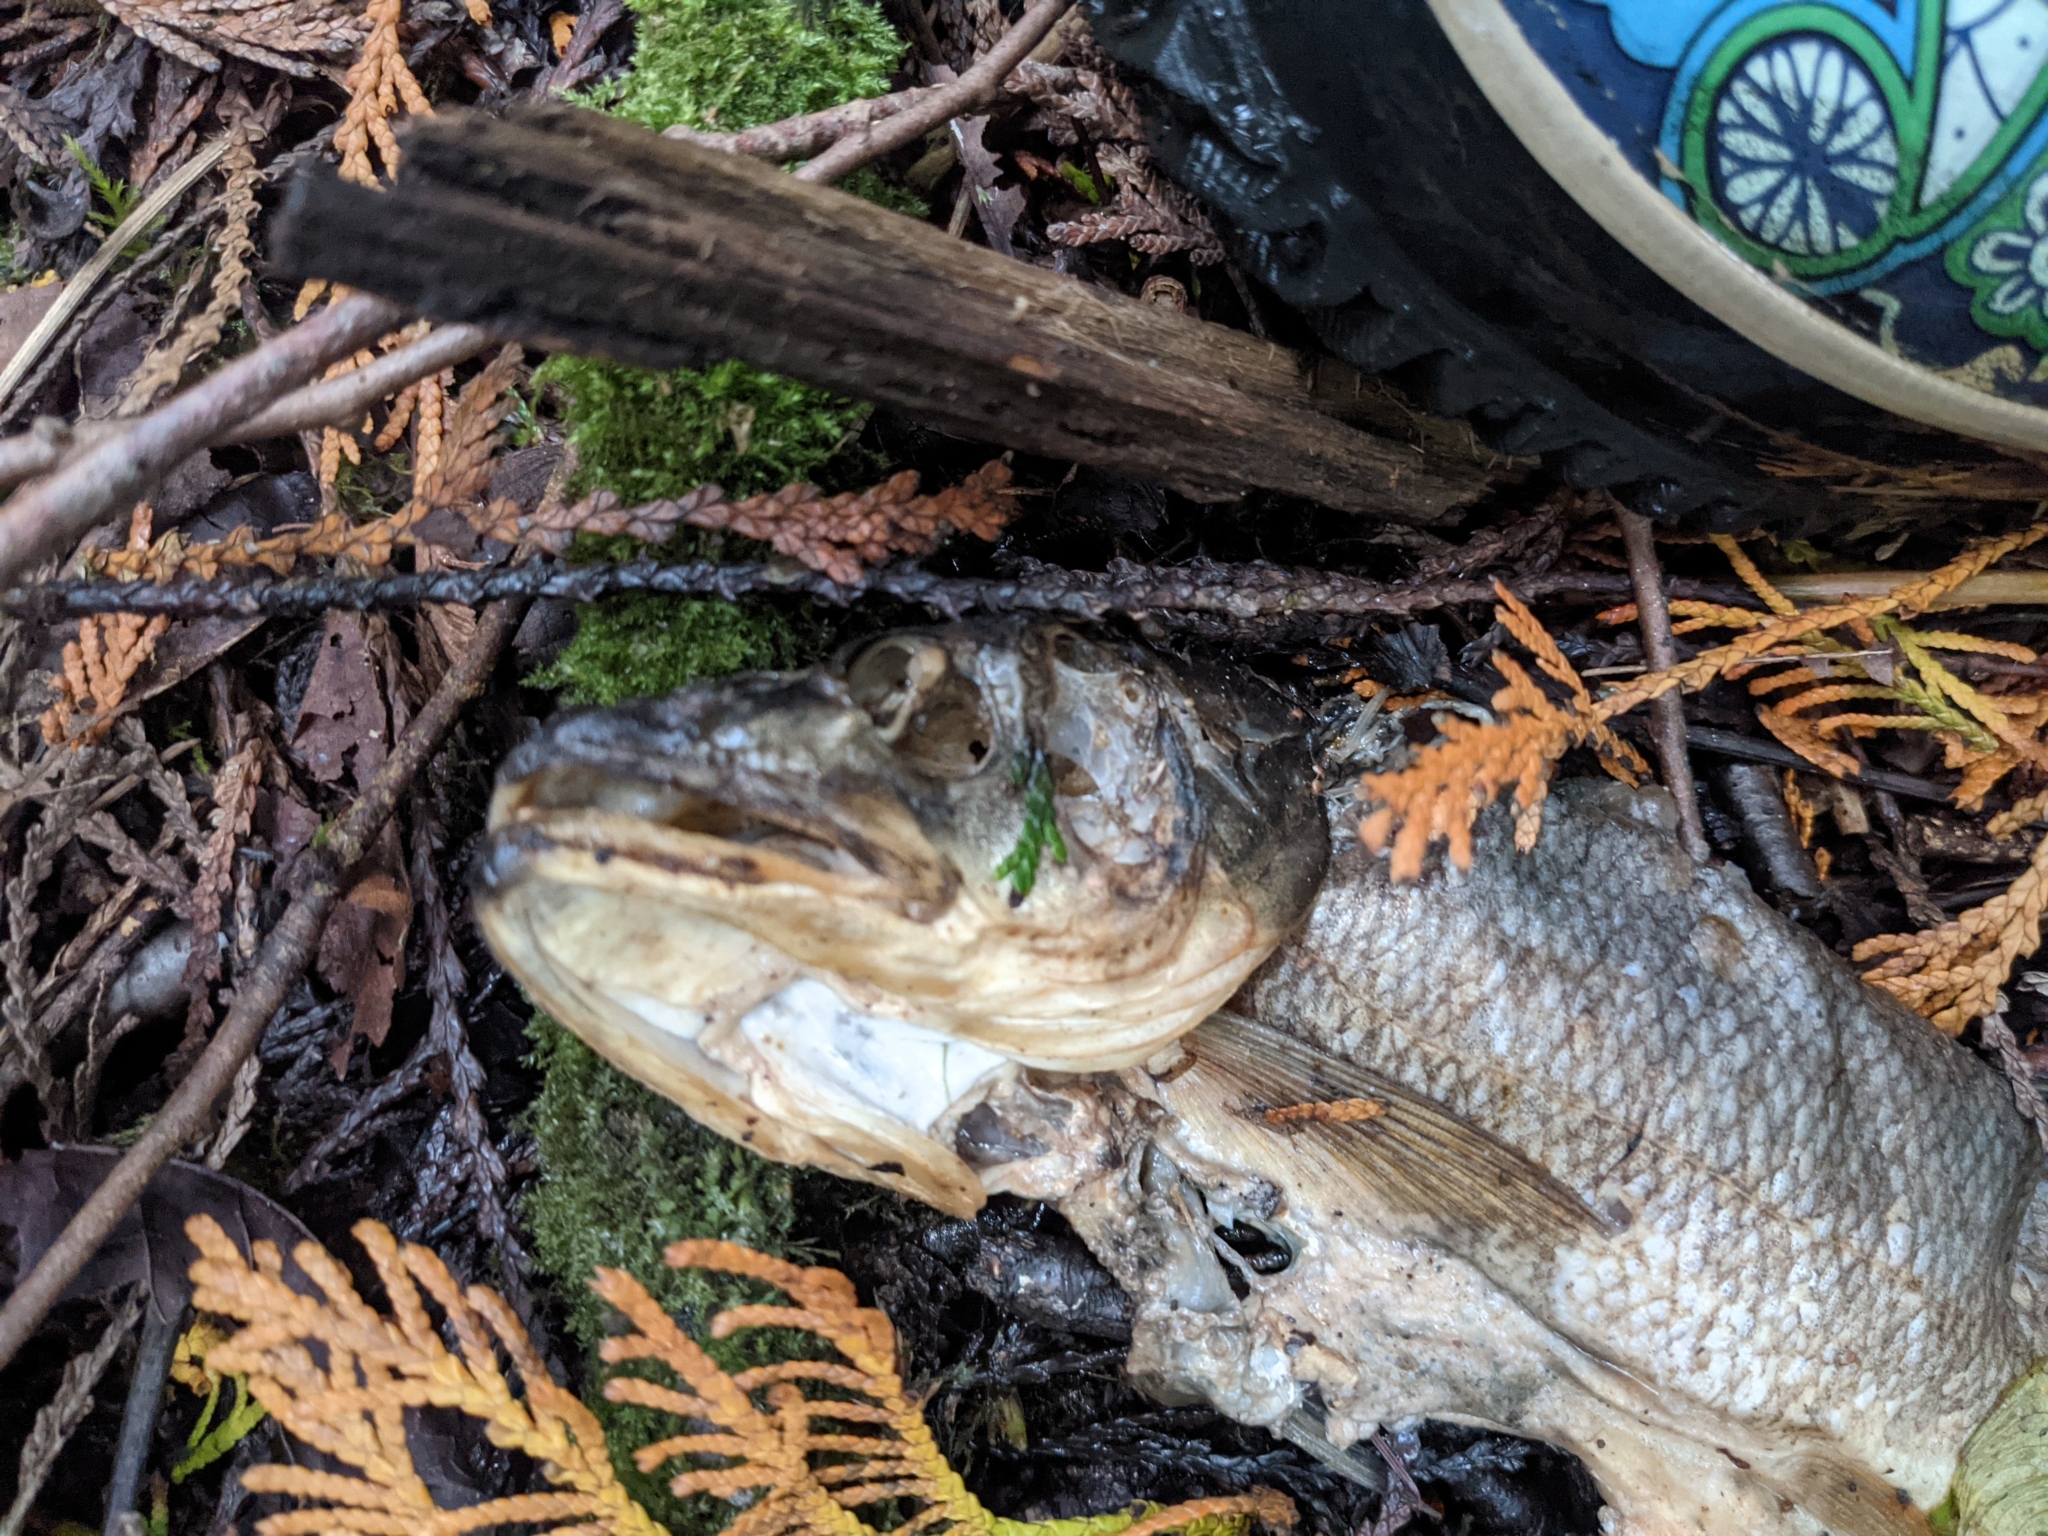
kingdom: Animalia
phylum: Chordata
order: Cypriniformes
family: Cyprinidae
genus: Ptychocheilus
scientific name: Ptychocheilus oregonensis
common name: Northern pikeminnow
